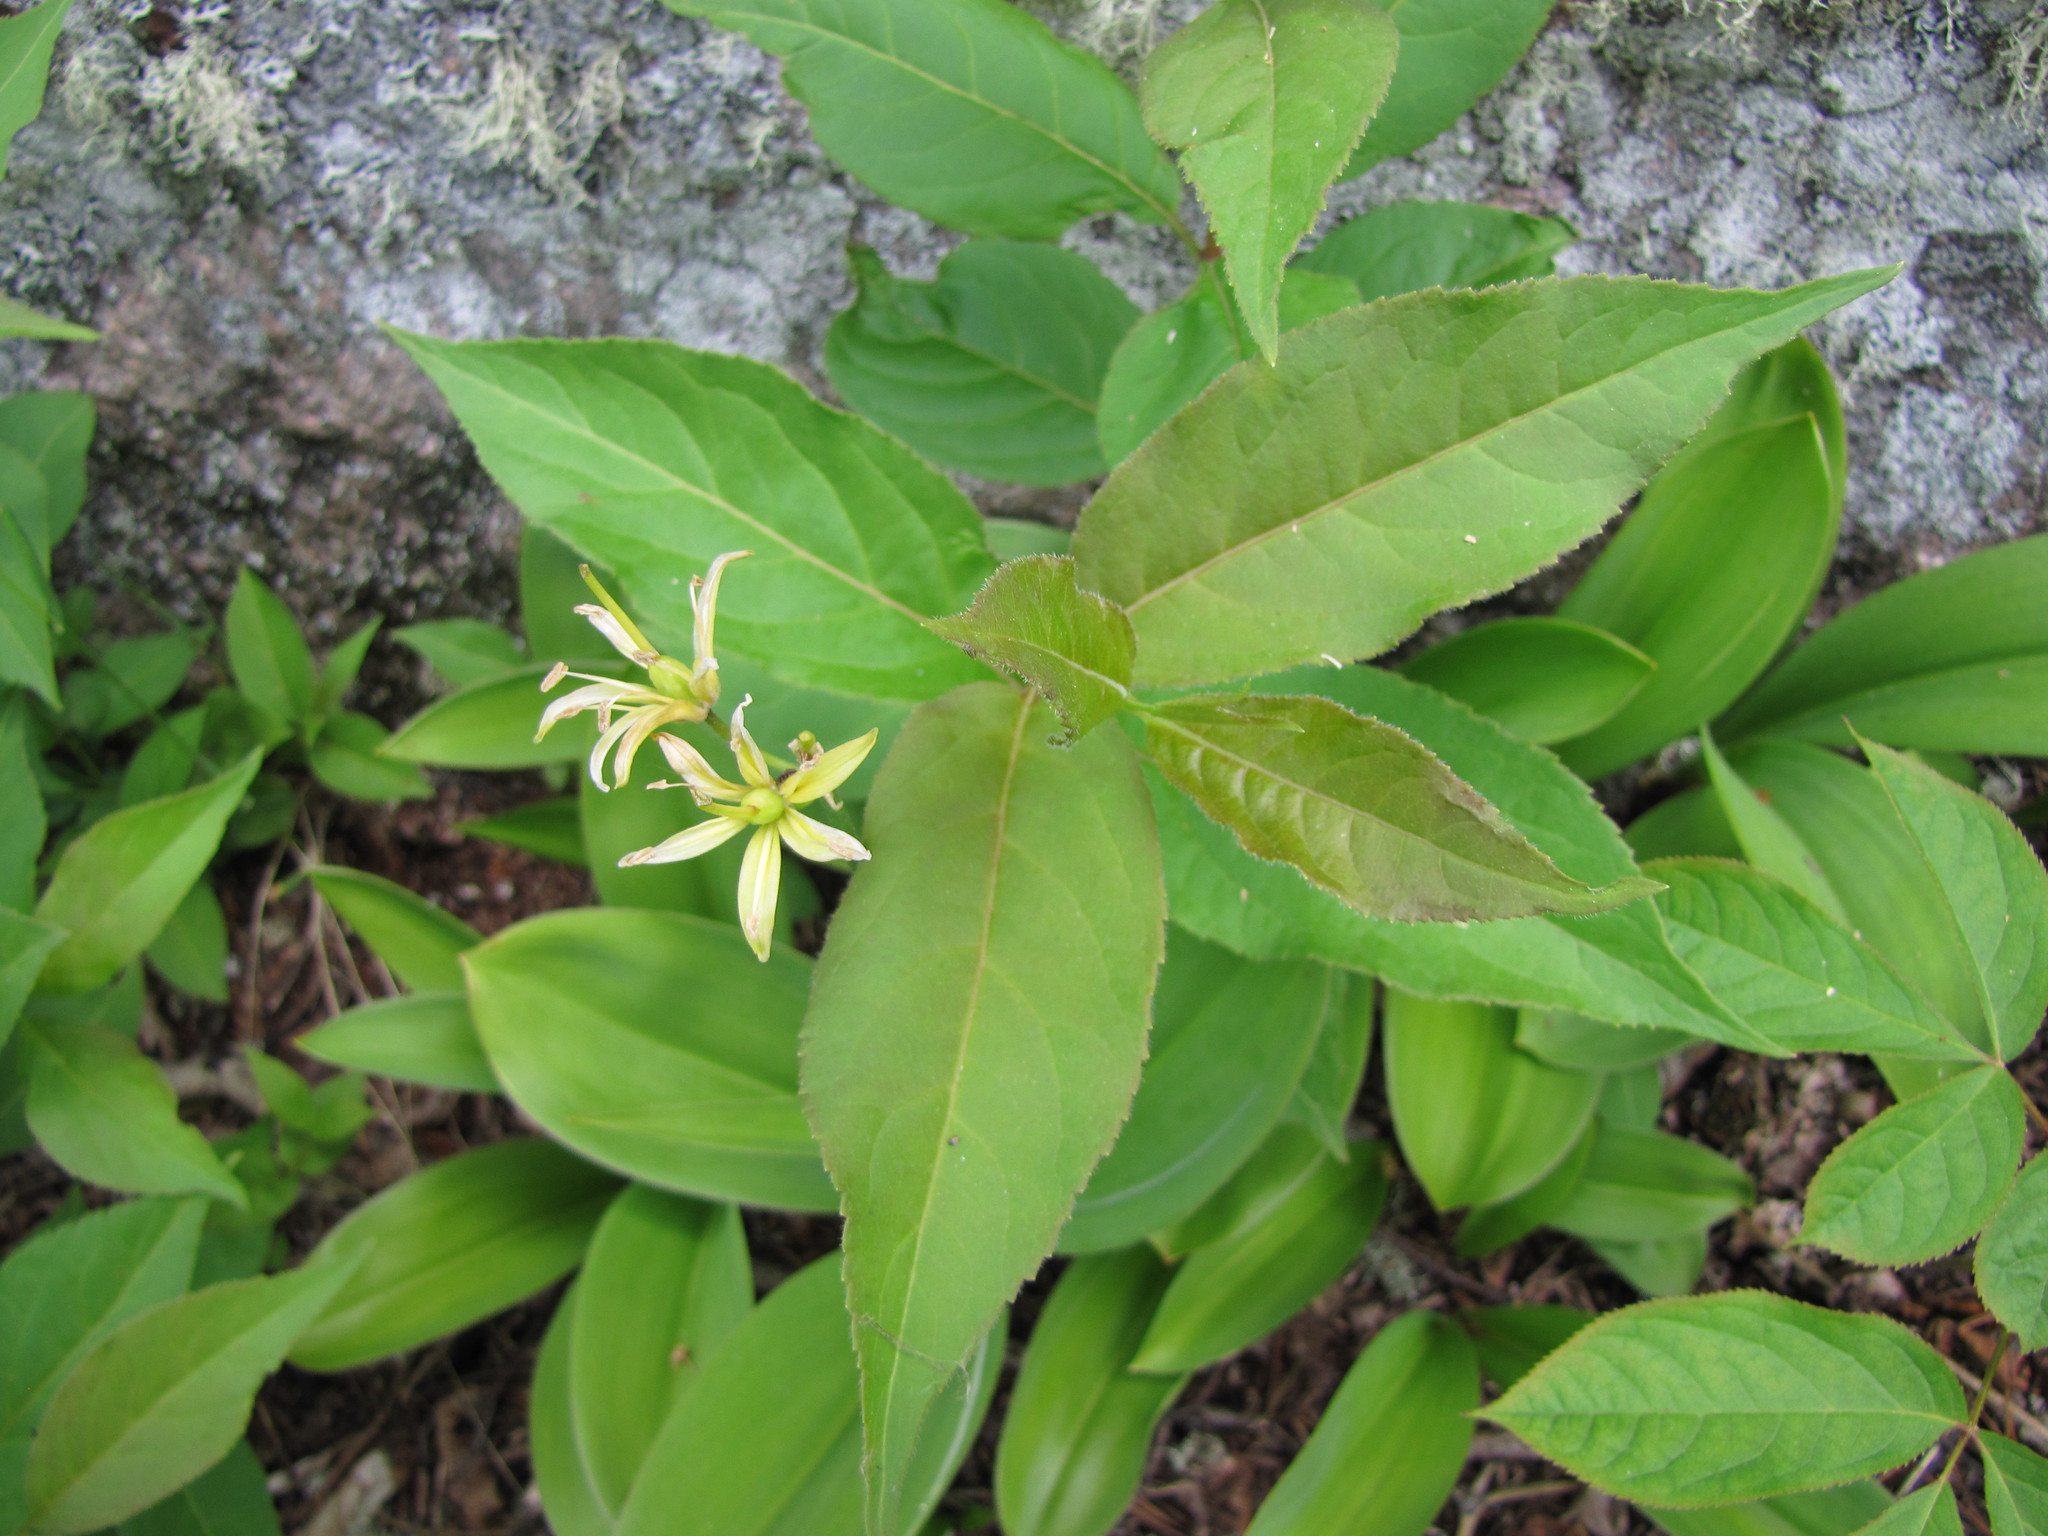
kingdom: Plantae
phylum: Tracheophyta
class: Liliopsida
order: Liliales
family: Liliaceae
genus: Clintonia
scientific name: Clintonia borealis
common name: Yellow clintonia
